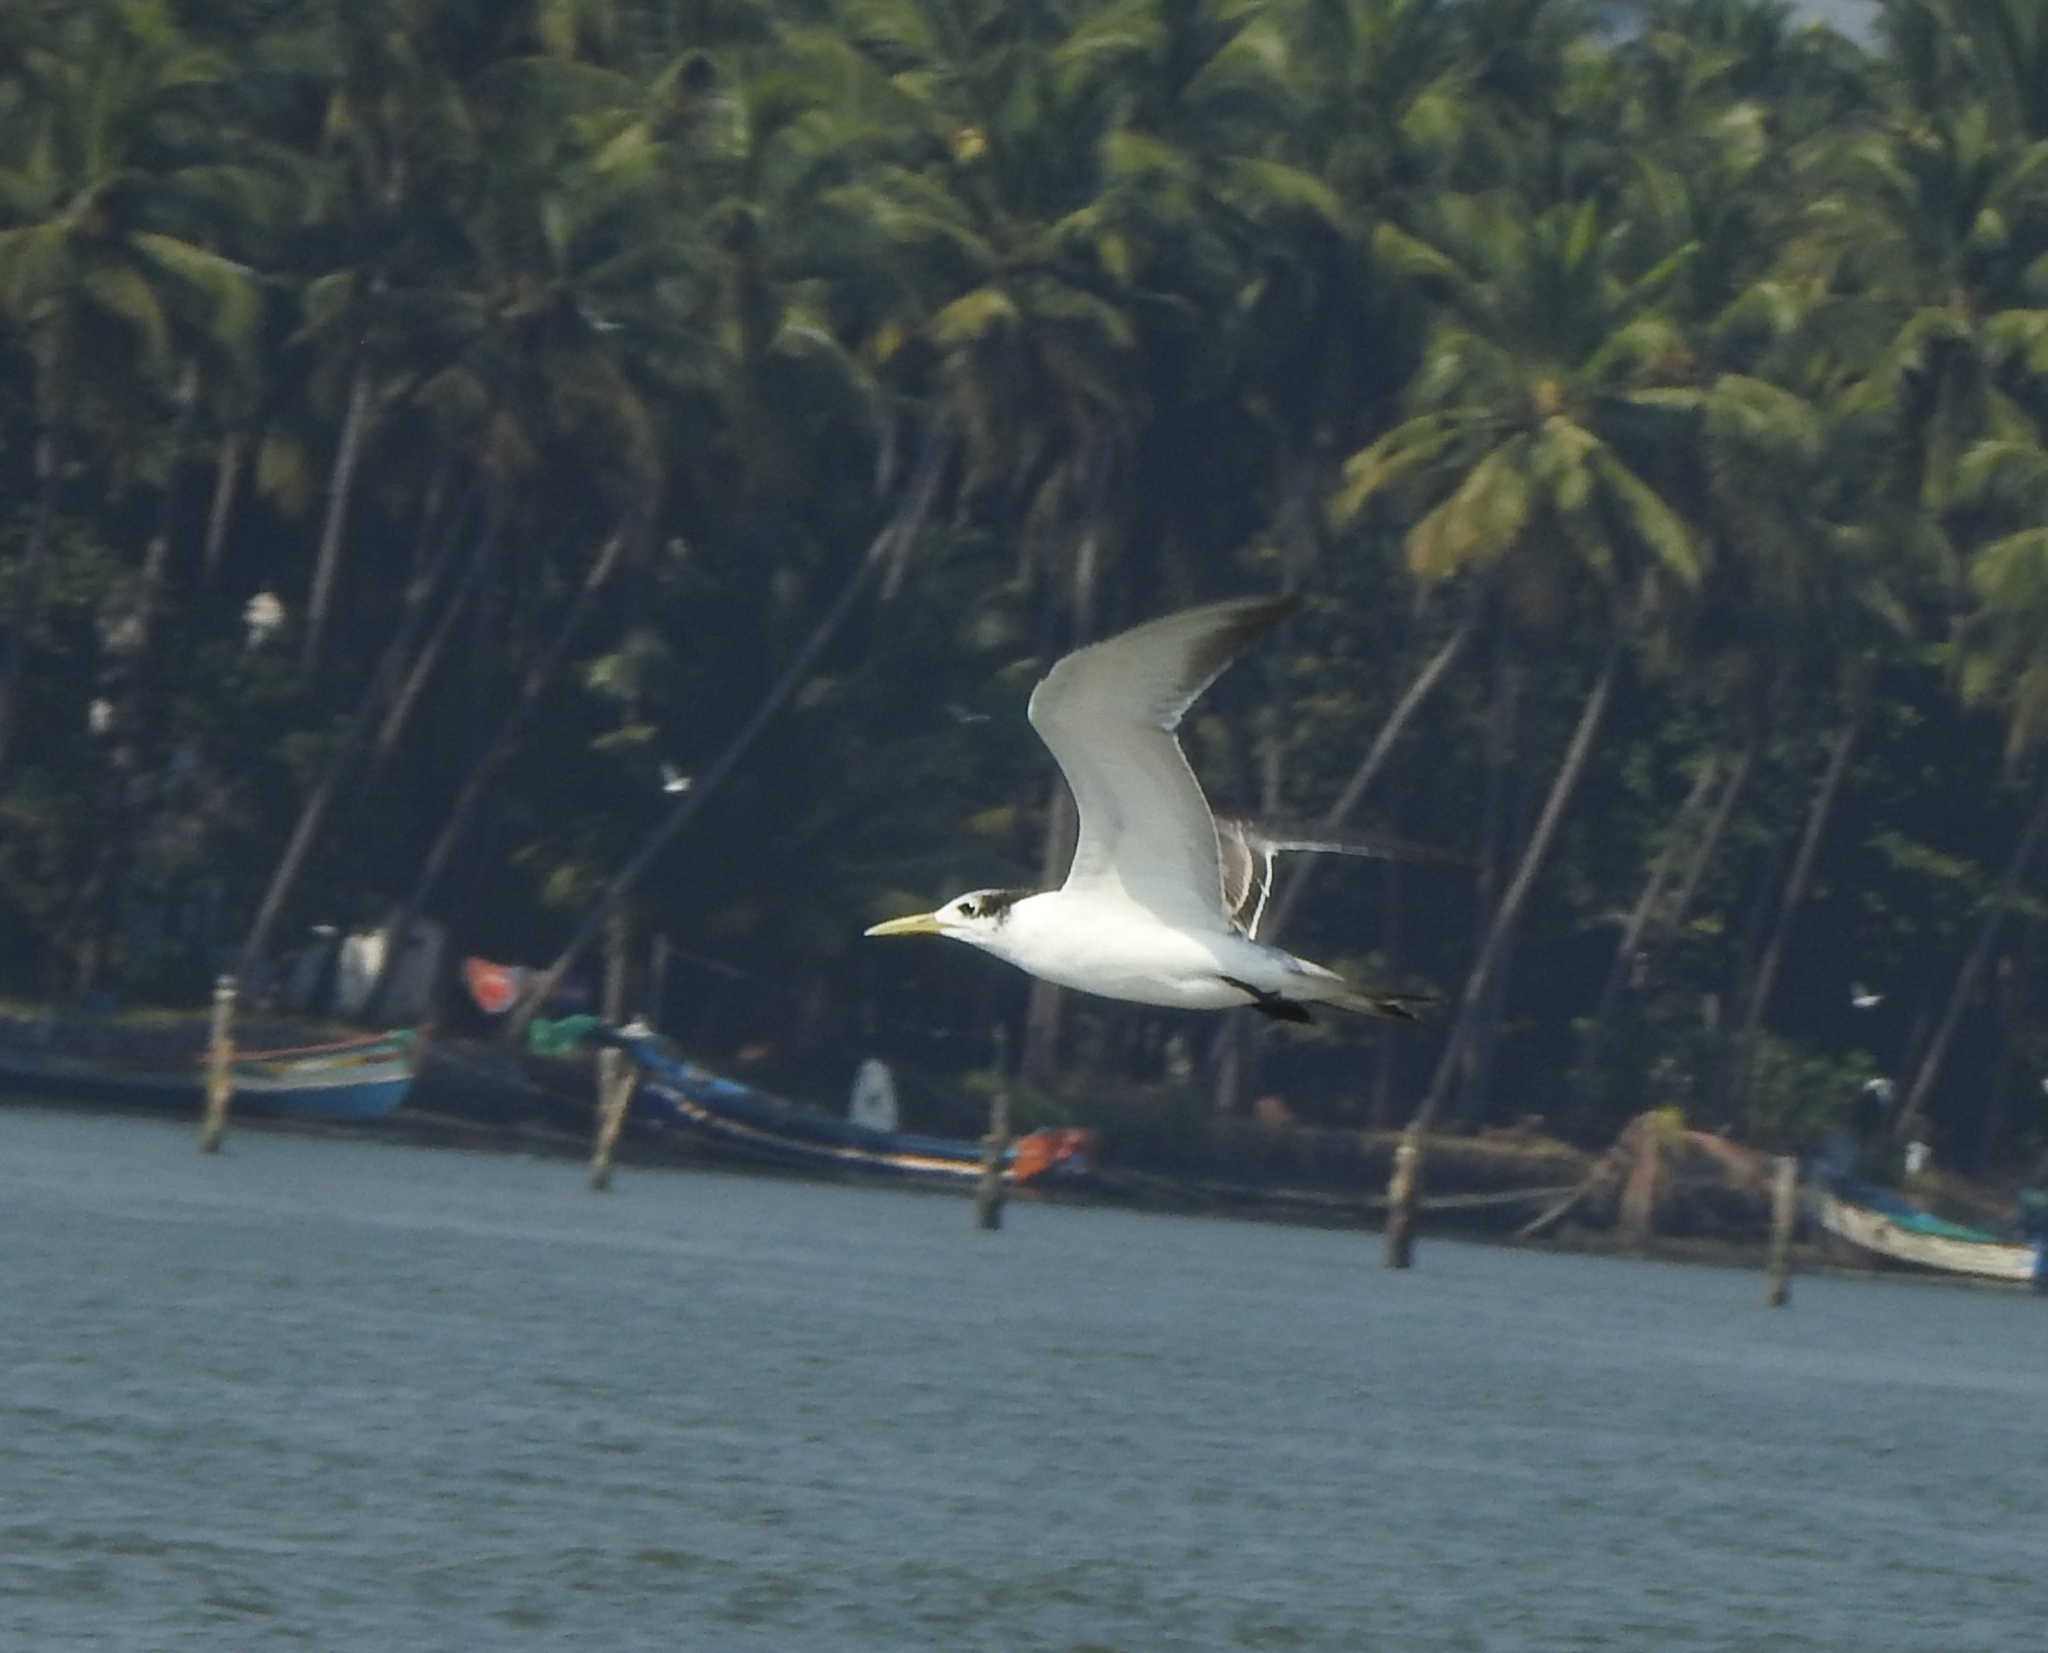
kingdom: Animalia
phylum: Chordata
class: Aves
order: Charadriiformes
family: Laridae
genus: Thalasseus
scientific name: Thalasseus bergii
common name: Greater crested tern
